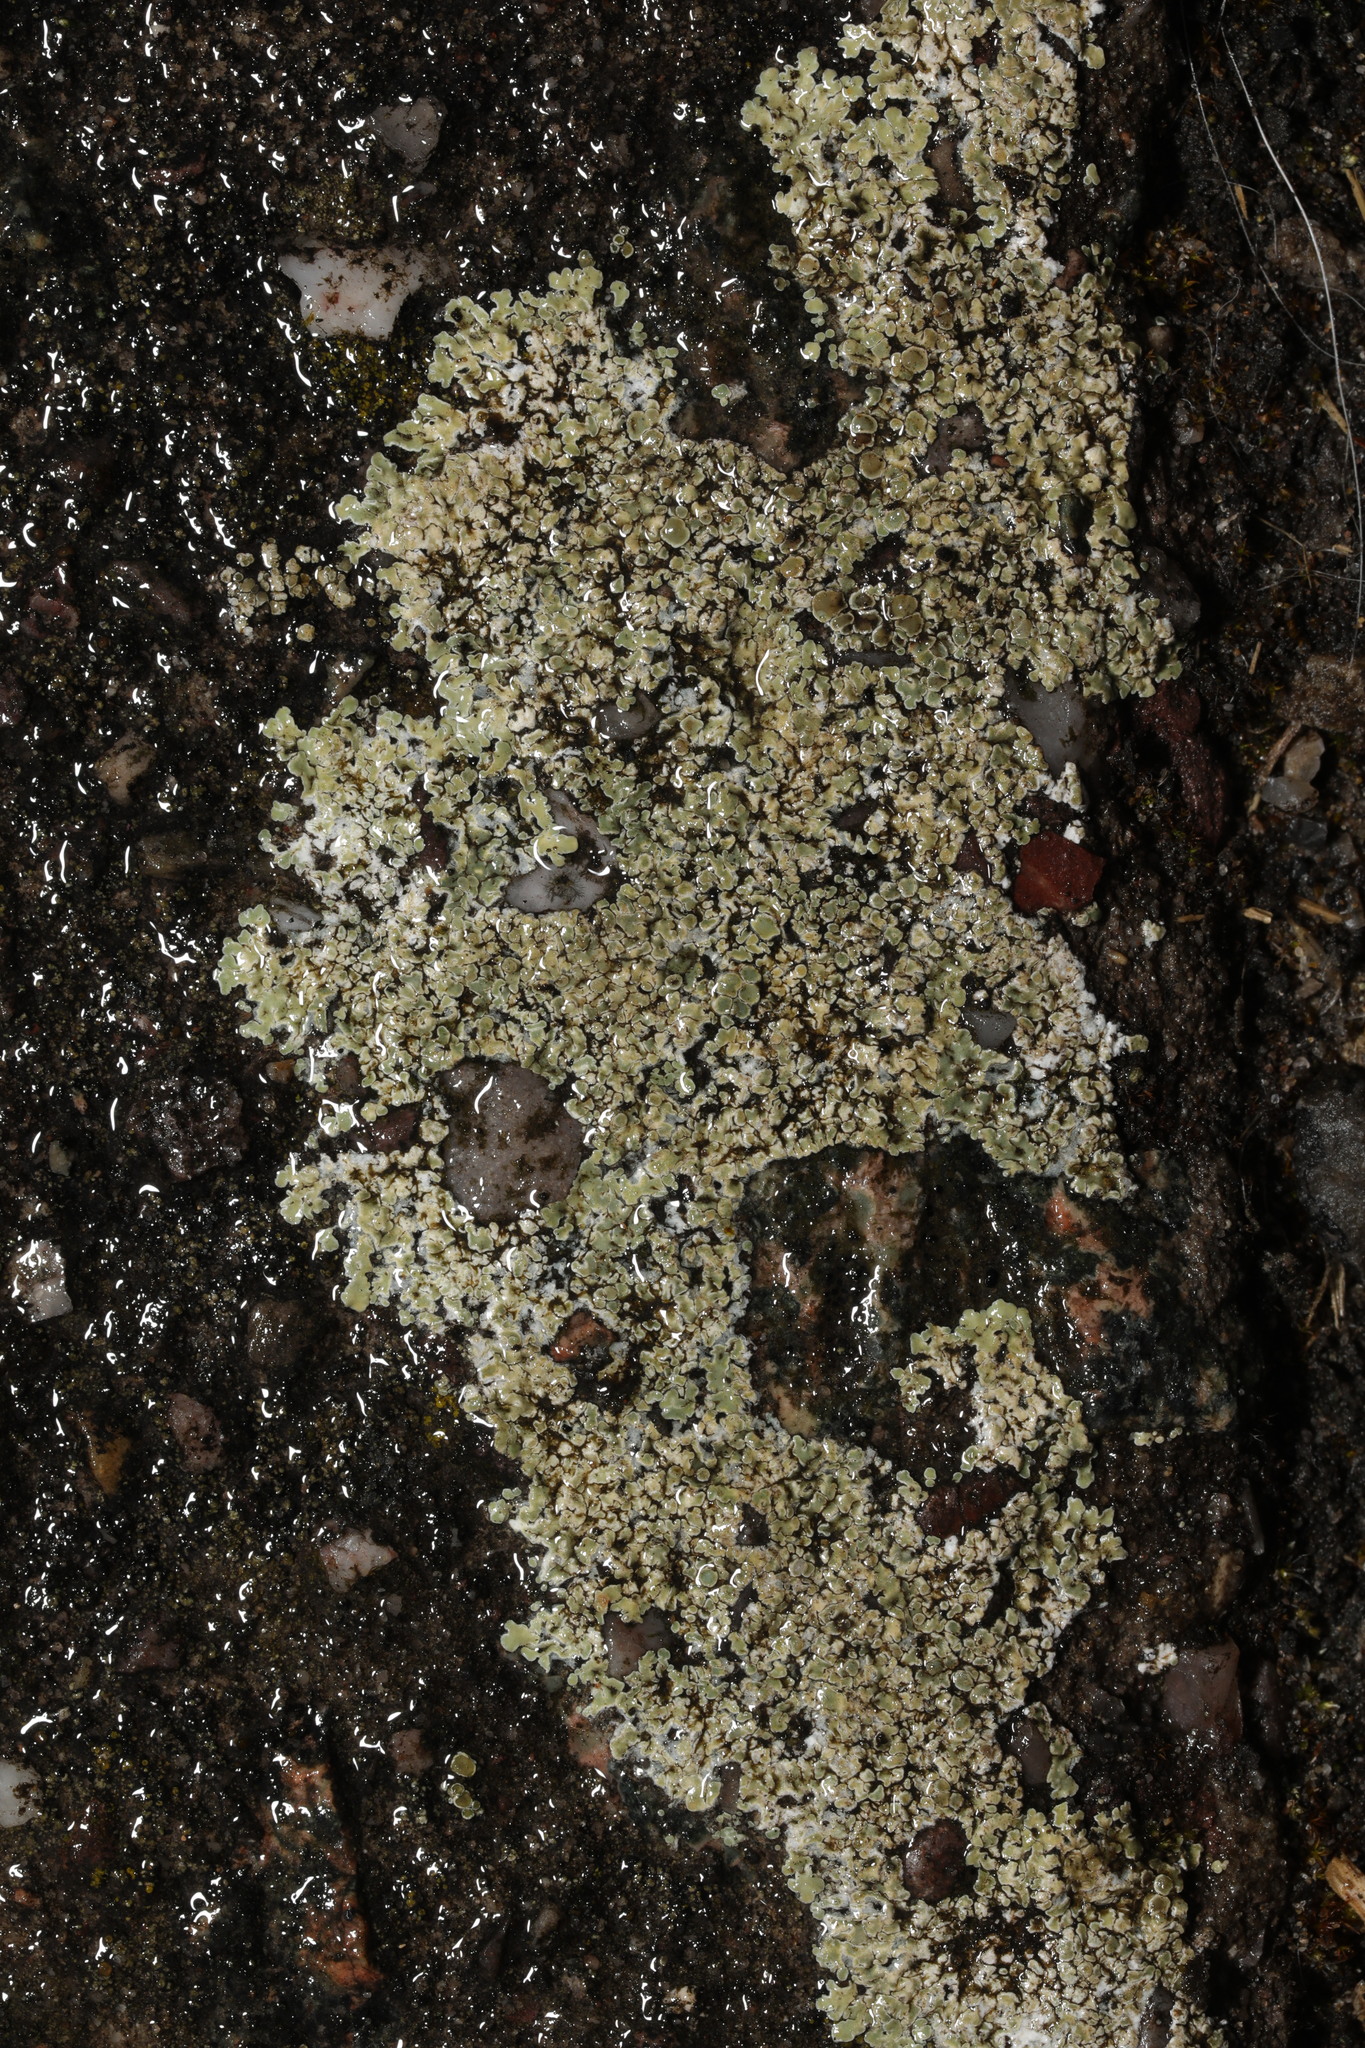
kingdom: Fungi
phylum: Ascomycota
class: Lecanoromycetes
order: Lecanorales
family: Lecanoraceae
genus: Protoparmeliopsis
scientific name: Protoparmeliopsis muralis
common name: Stonewall rim lichen
